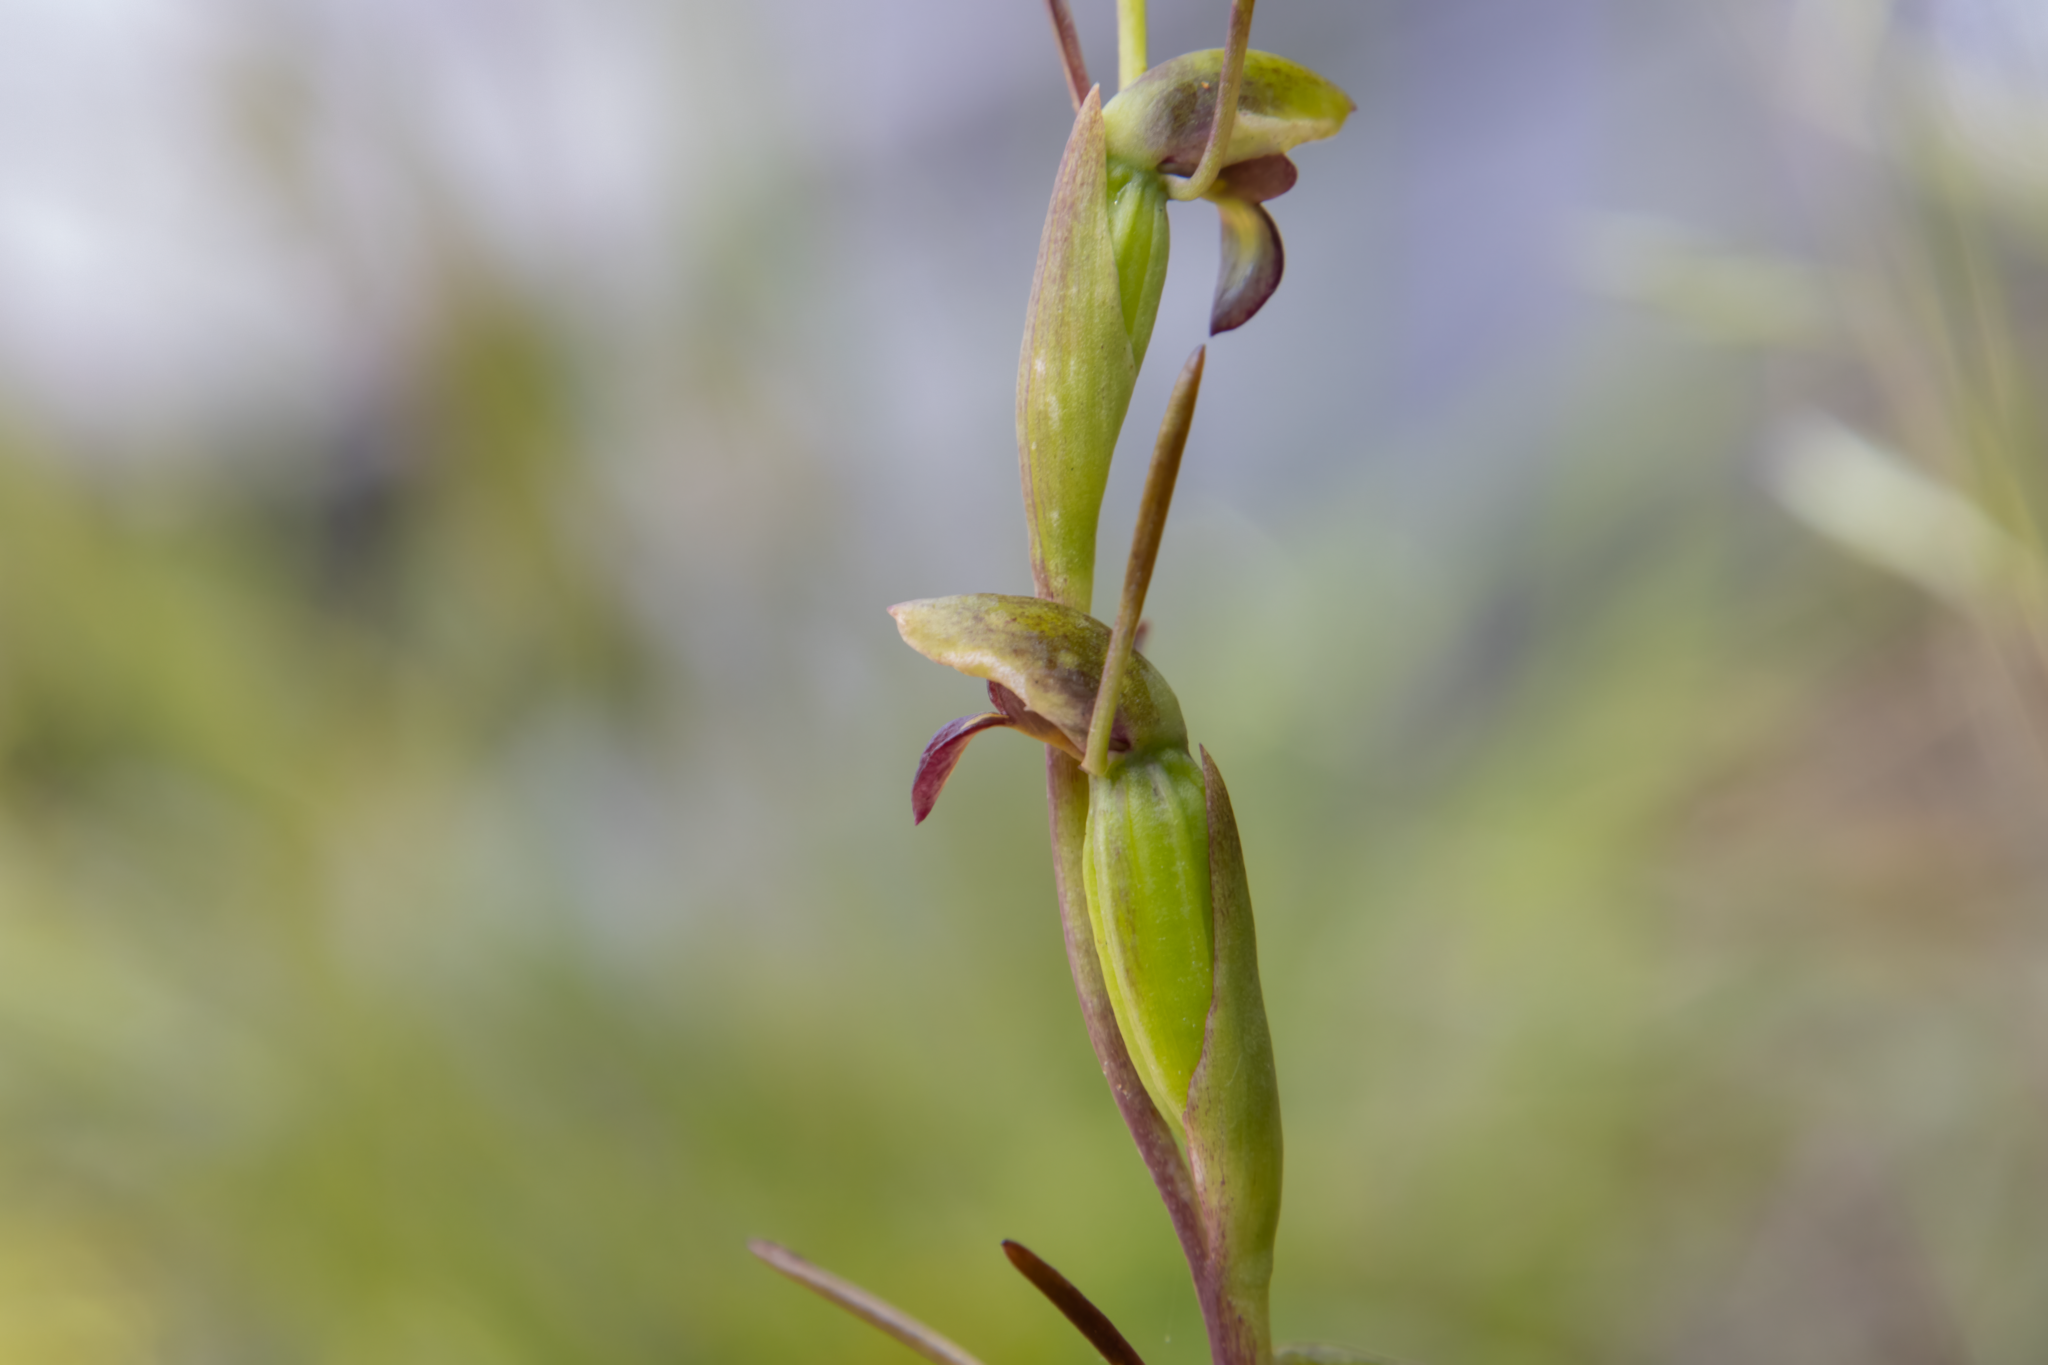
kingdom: Plantae
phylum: Tracheophyta
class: Liliopsida
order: Asparagales
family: Orchidaceae
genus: Orthoceras
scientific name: Orthoceras novae-zeelandiae
